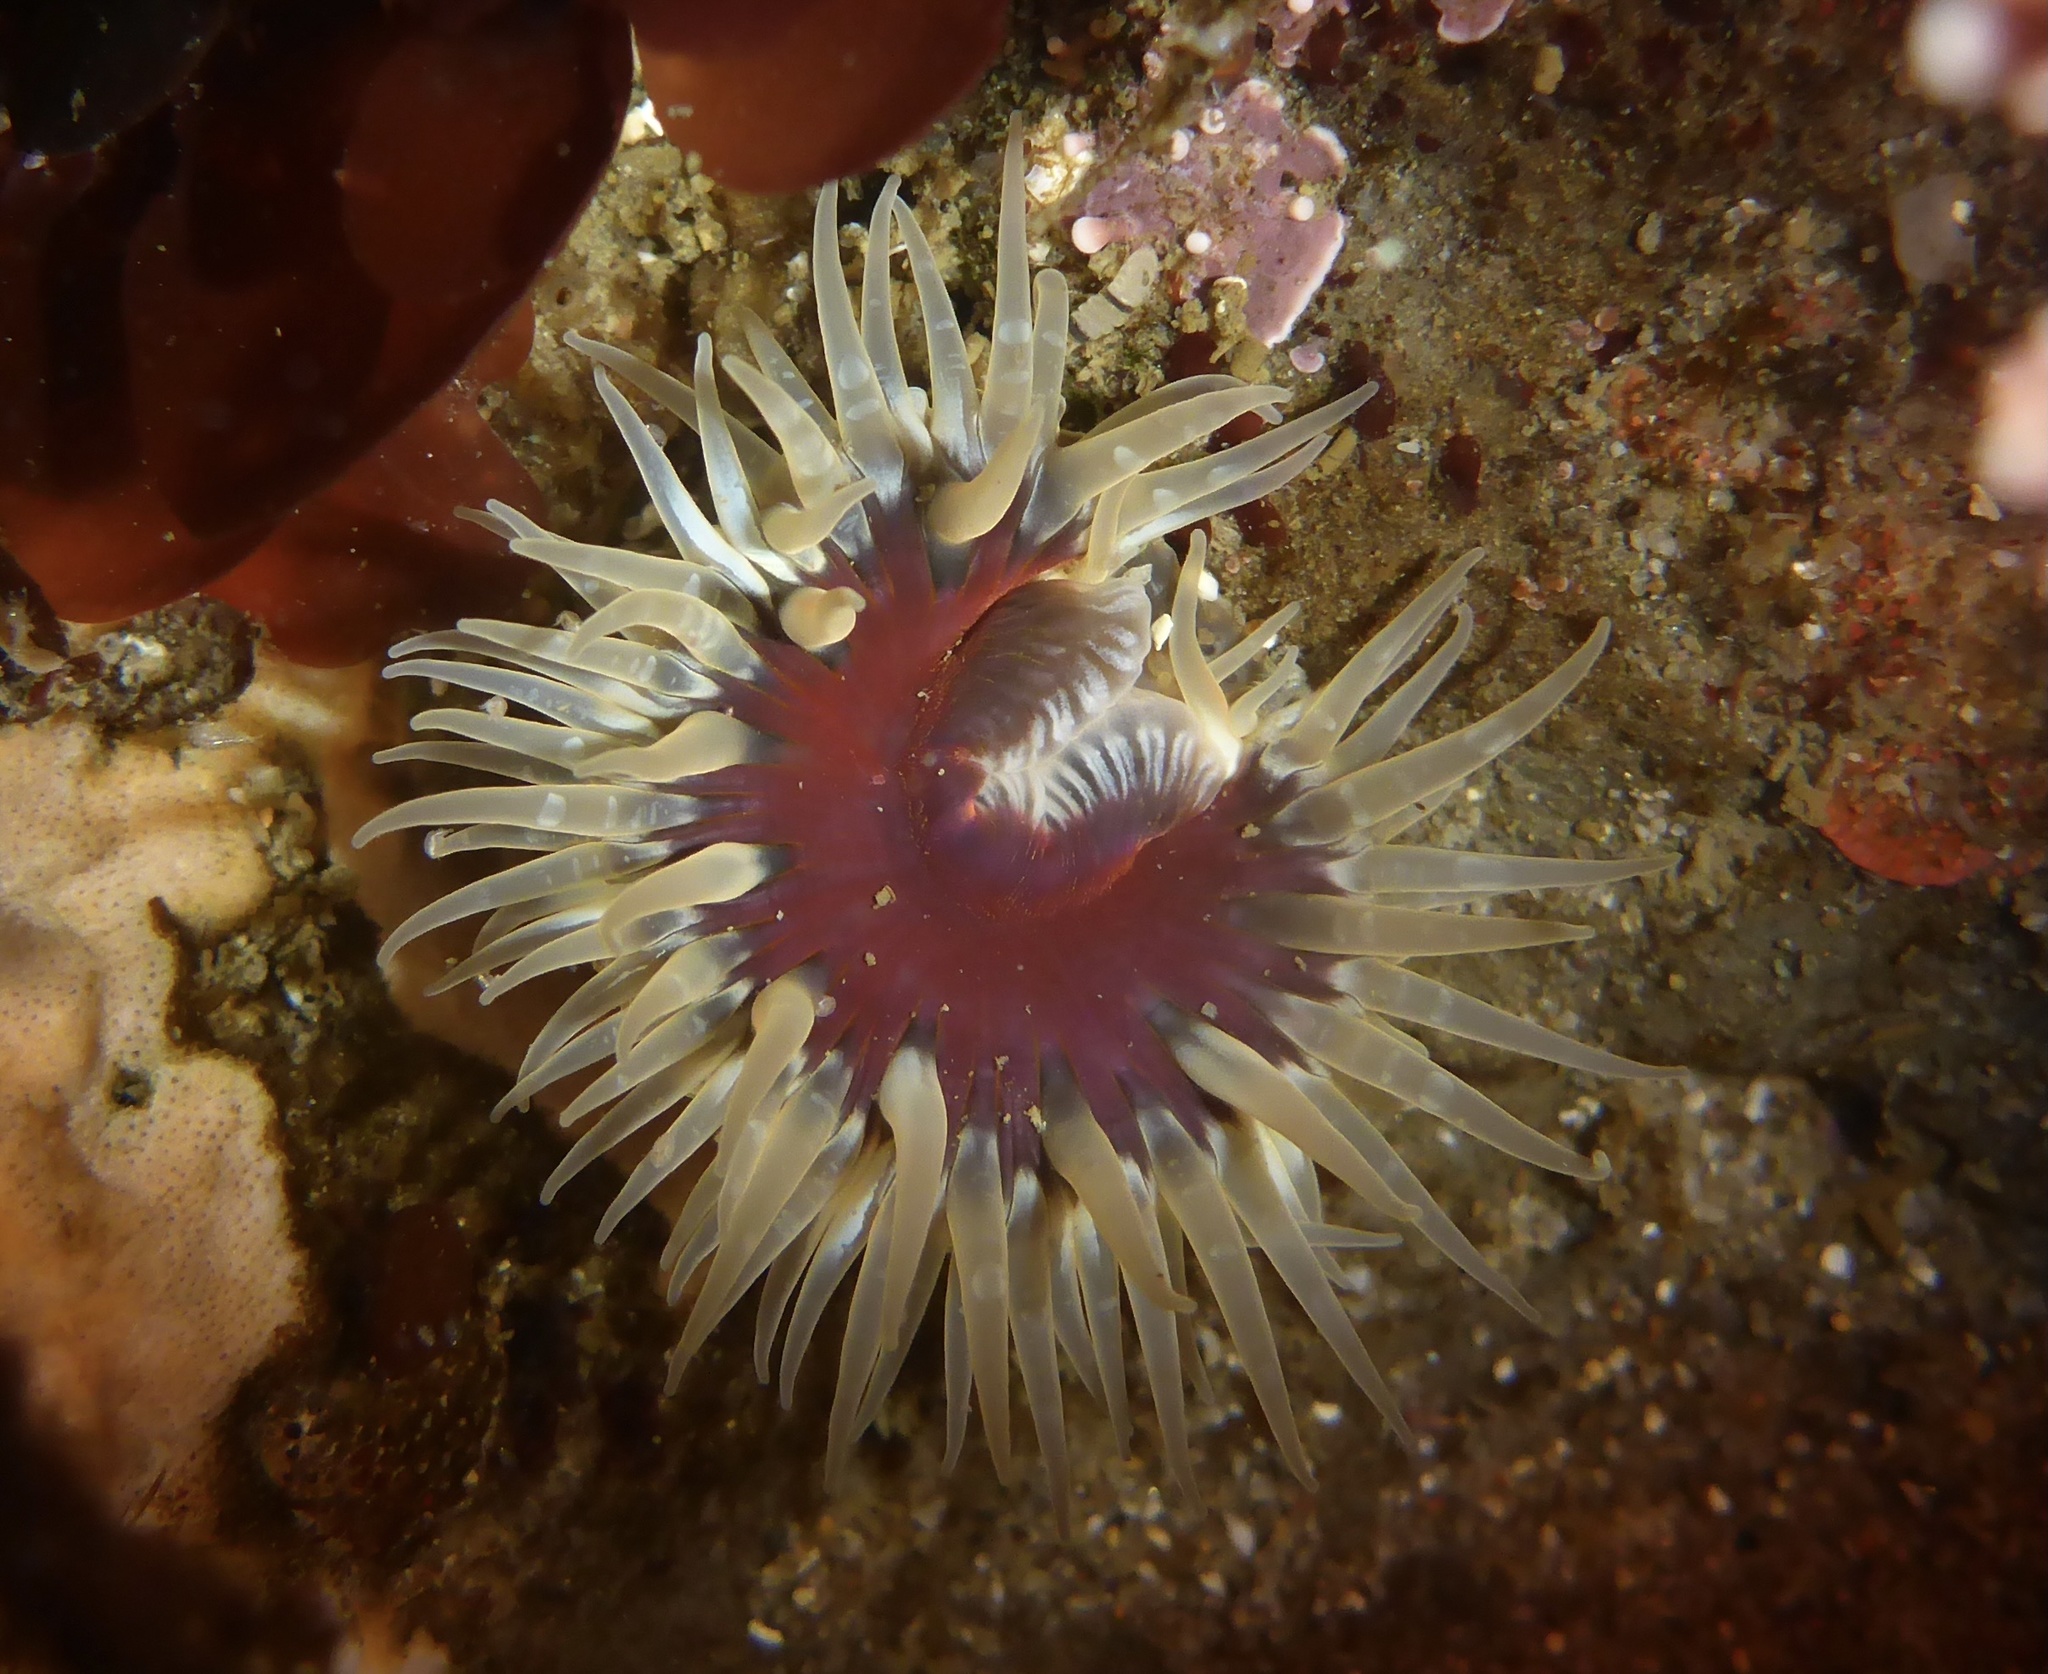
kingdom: Animalia
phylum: Cnidaria
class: Anthozoa
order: Actiniaria
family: Actiniidae
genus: Anthopleura
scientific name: Anthopleura artemisia
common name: Buried sea anemone
